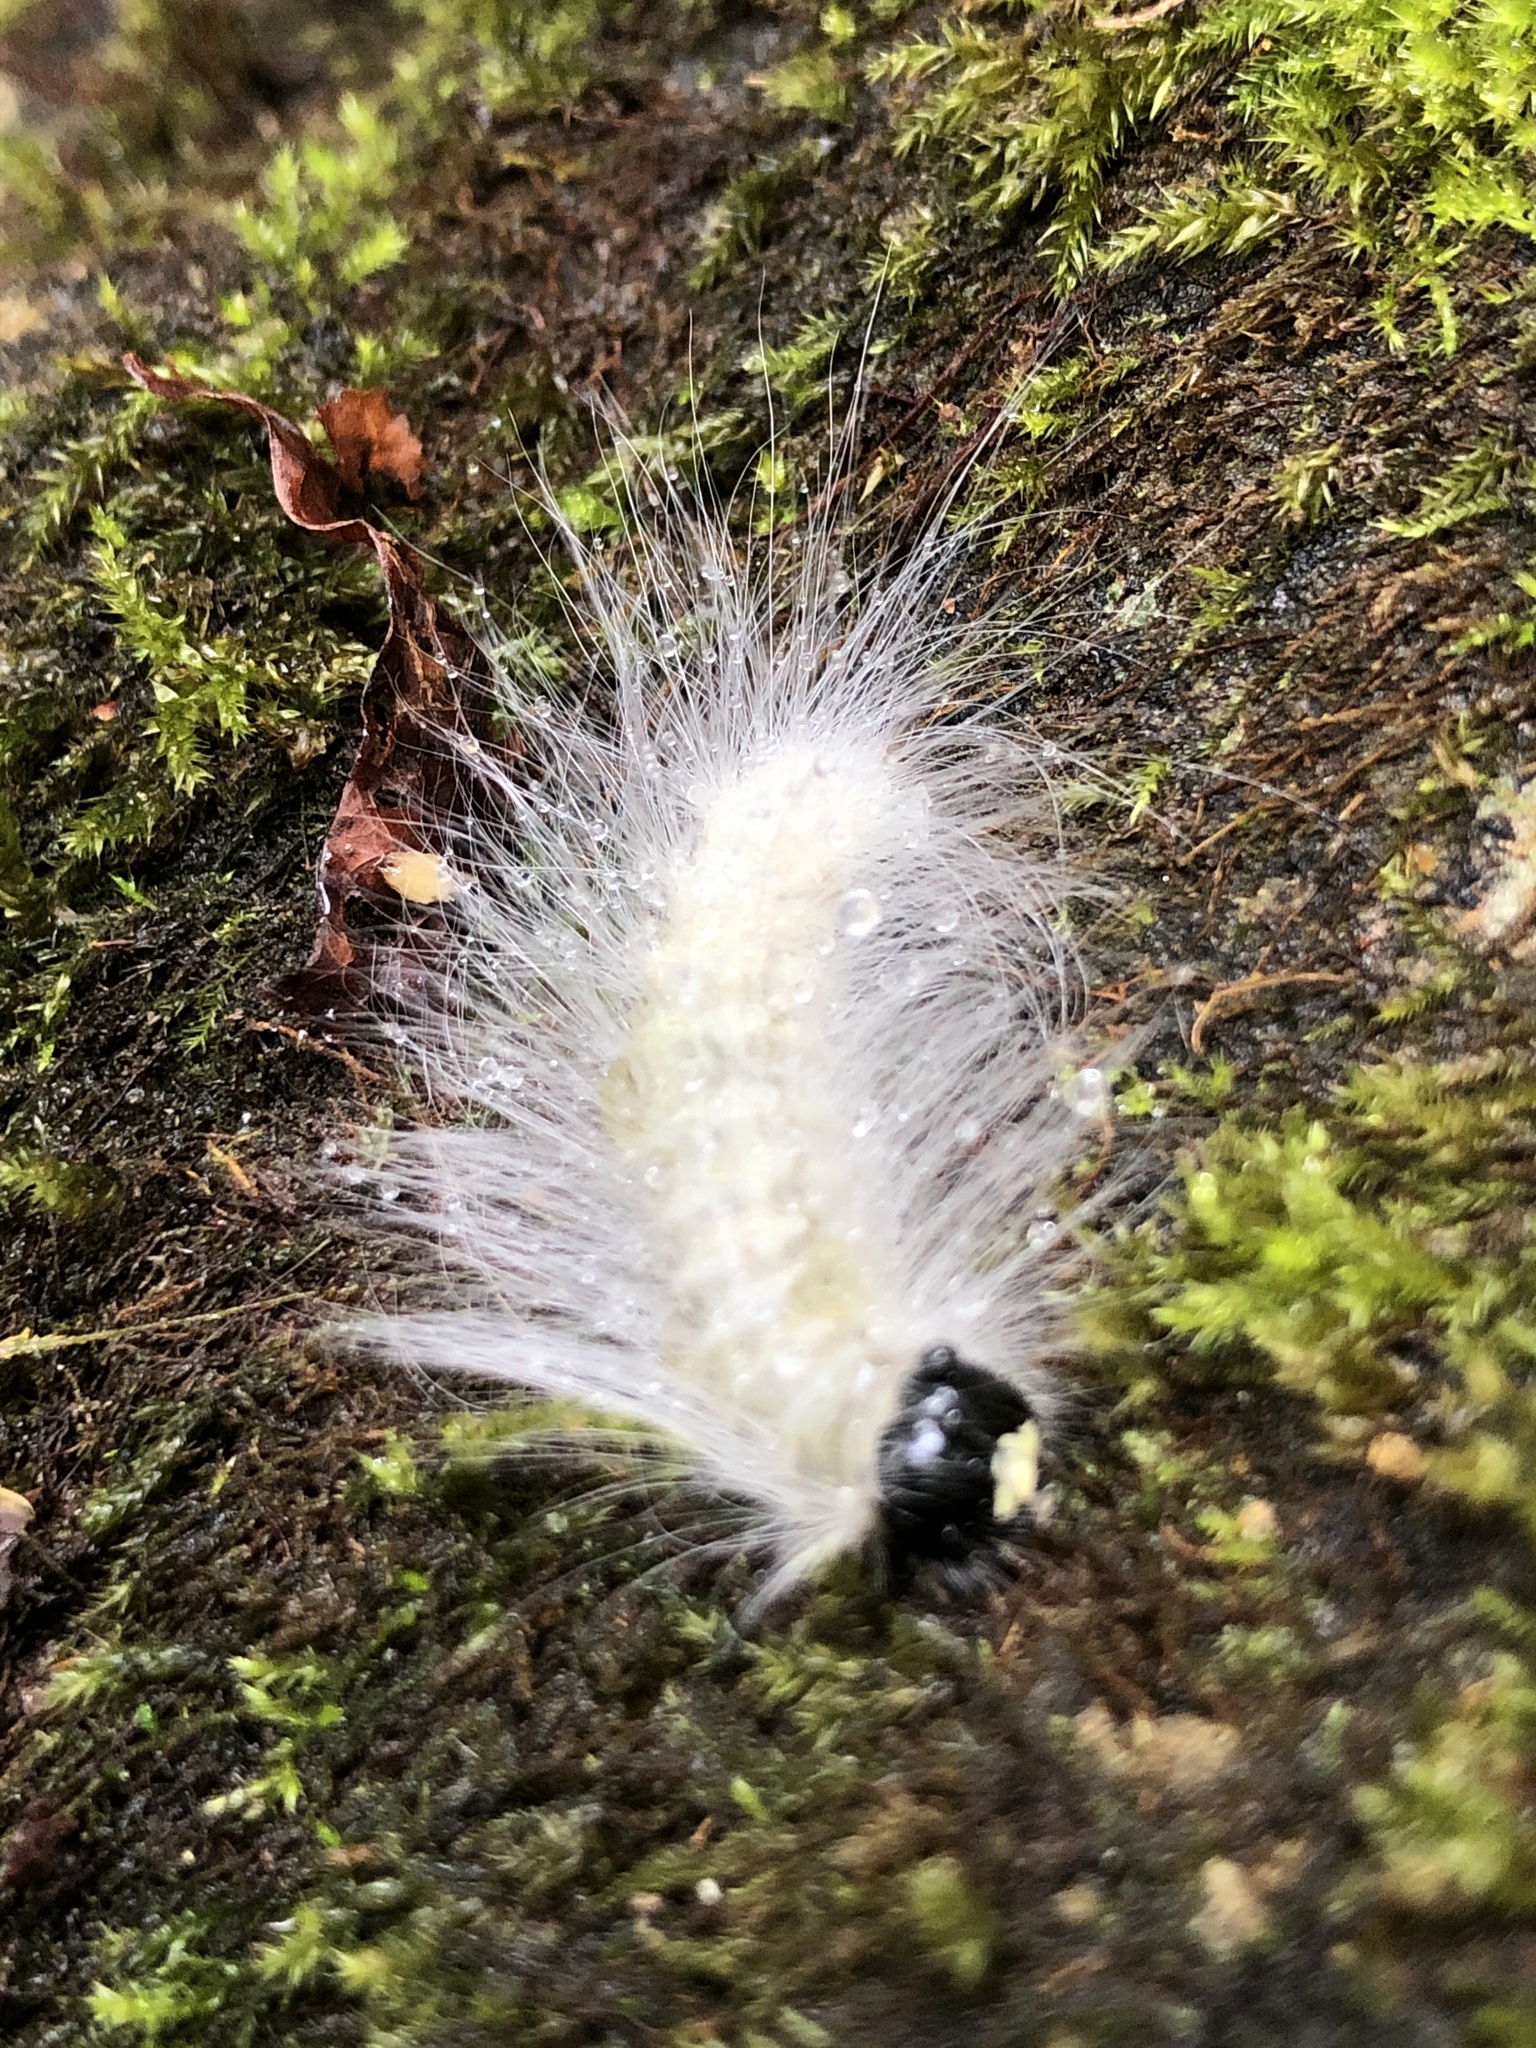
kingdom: Animalia
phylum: Arthropoda
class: Insecta
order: Lepidoptera
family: Noctuidae
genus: Charadra
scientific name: Charadra deridens
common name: Marbled tuffet
